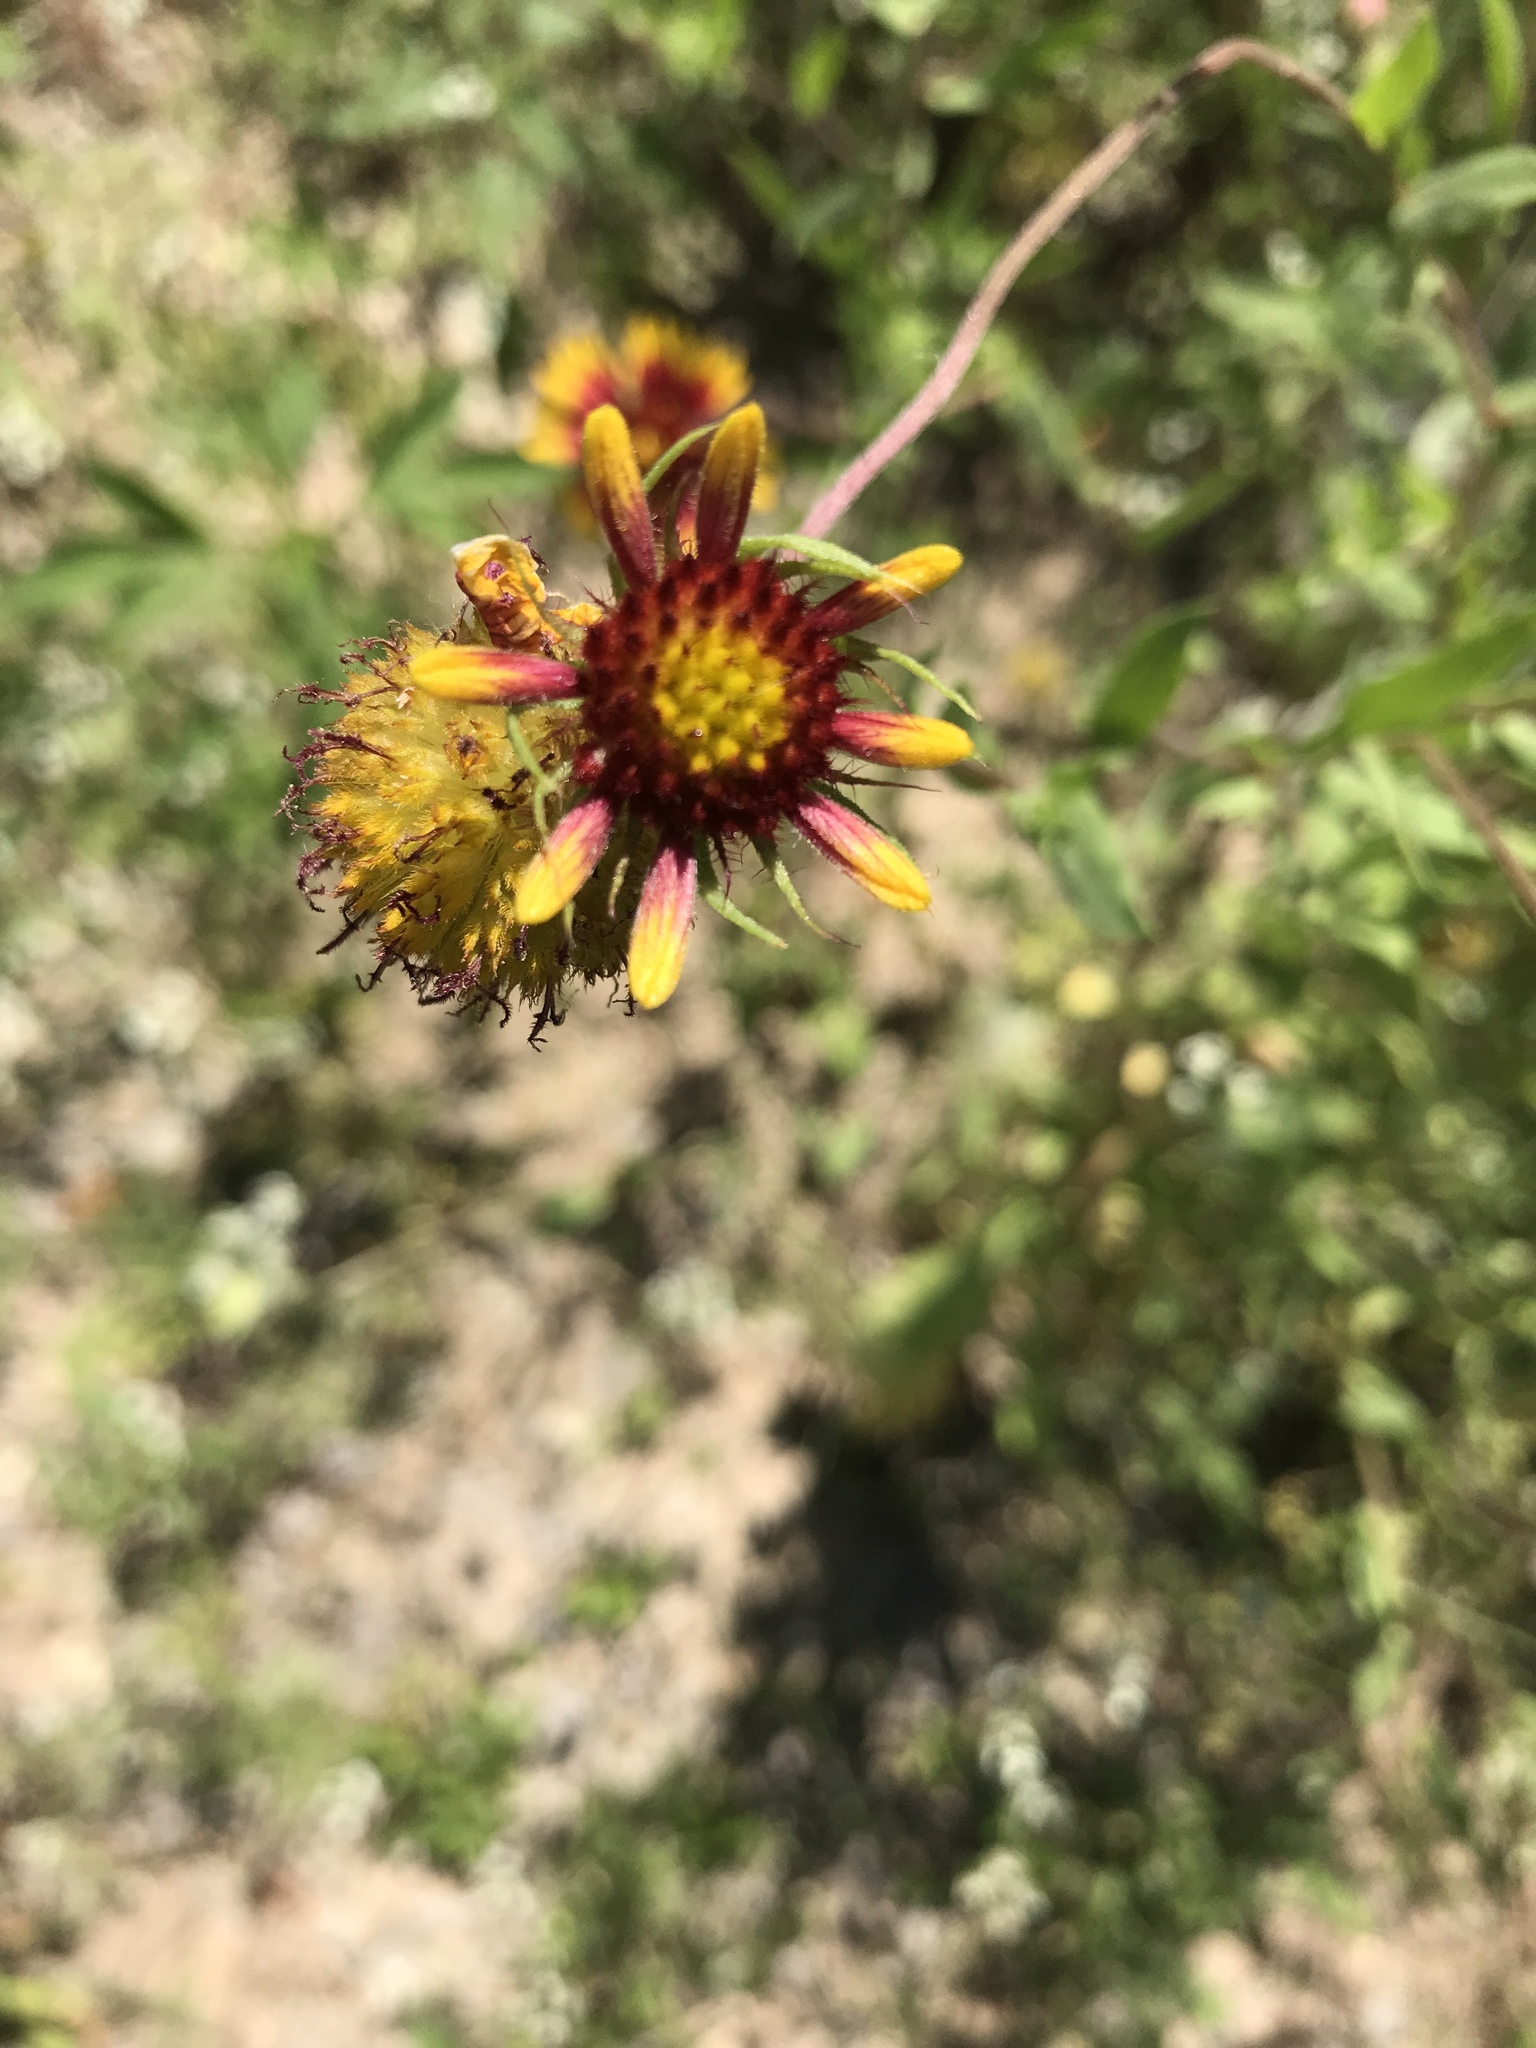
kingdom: Plantae
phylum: Tracheophyta
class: Magnoliopsida
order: Asterales
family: Asteraceae
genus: Gaillardia
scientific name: Gaillardia pulchella
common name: Firewheel
